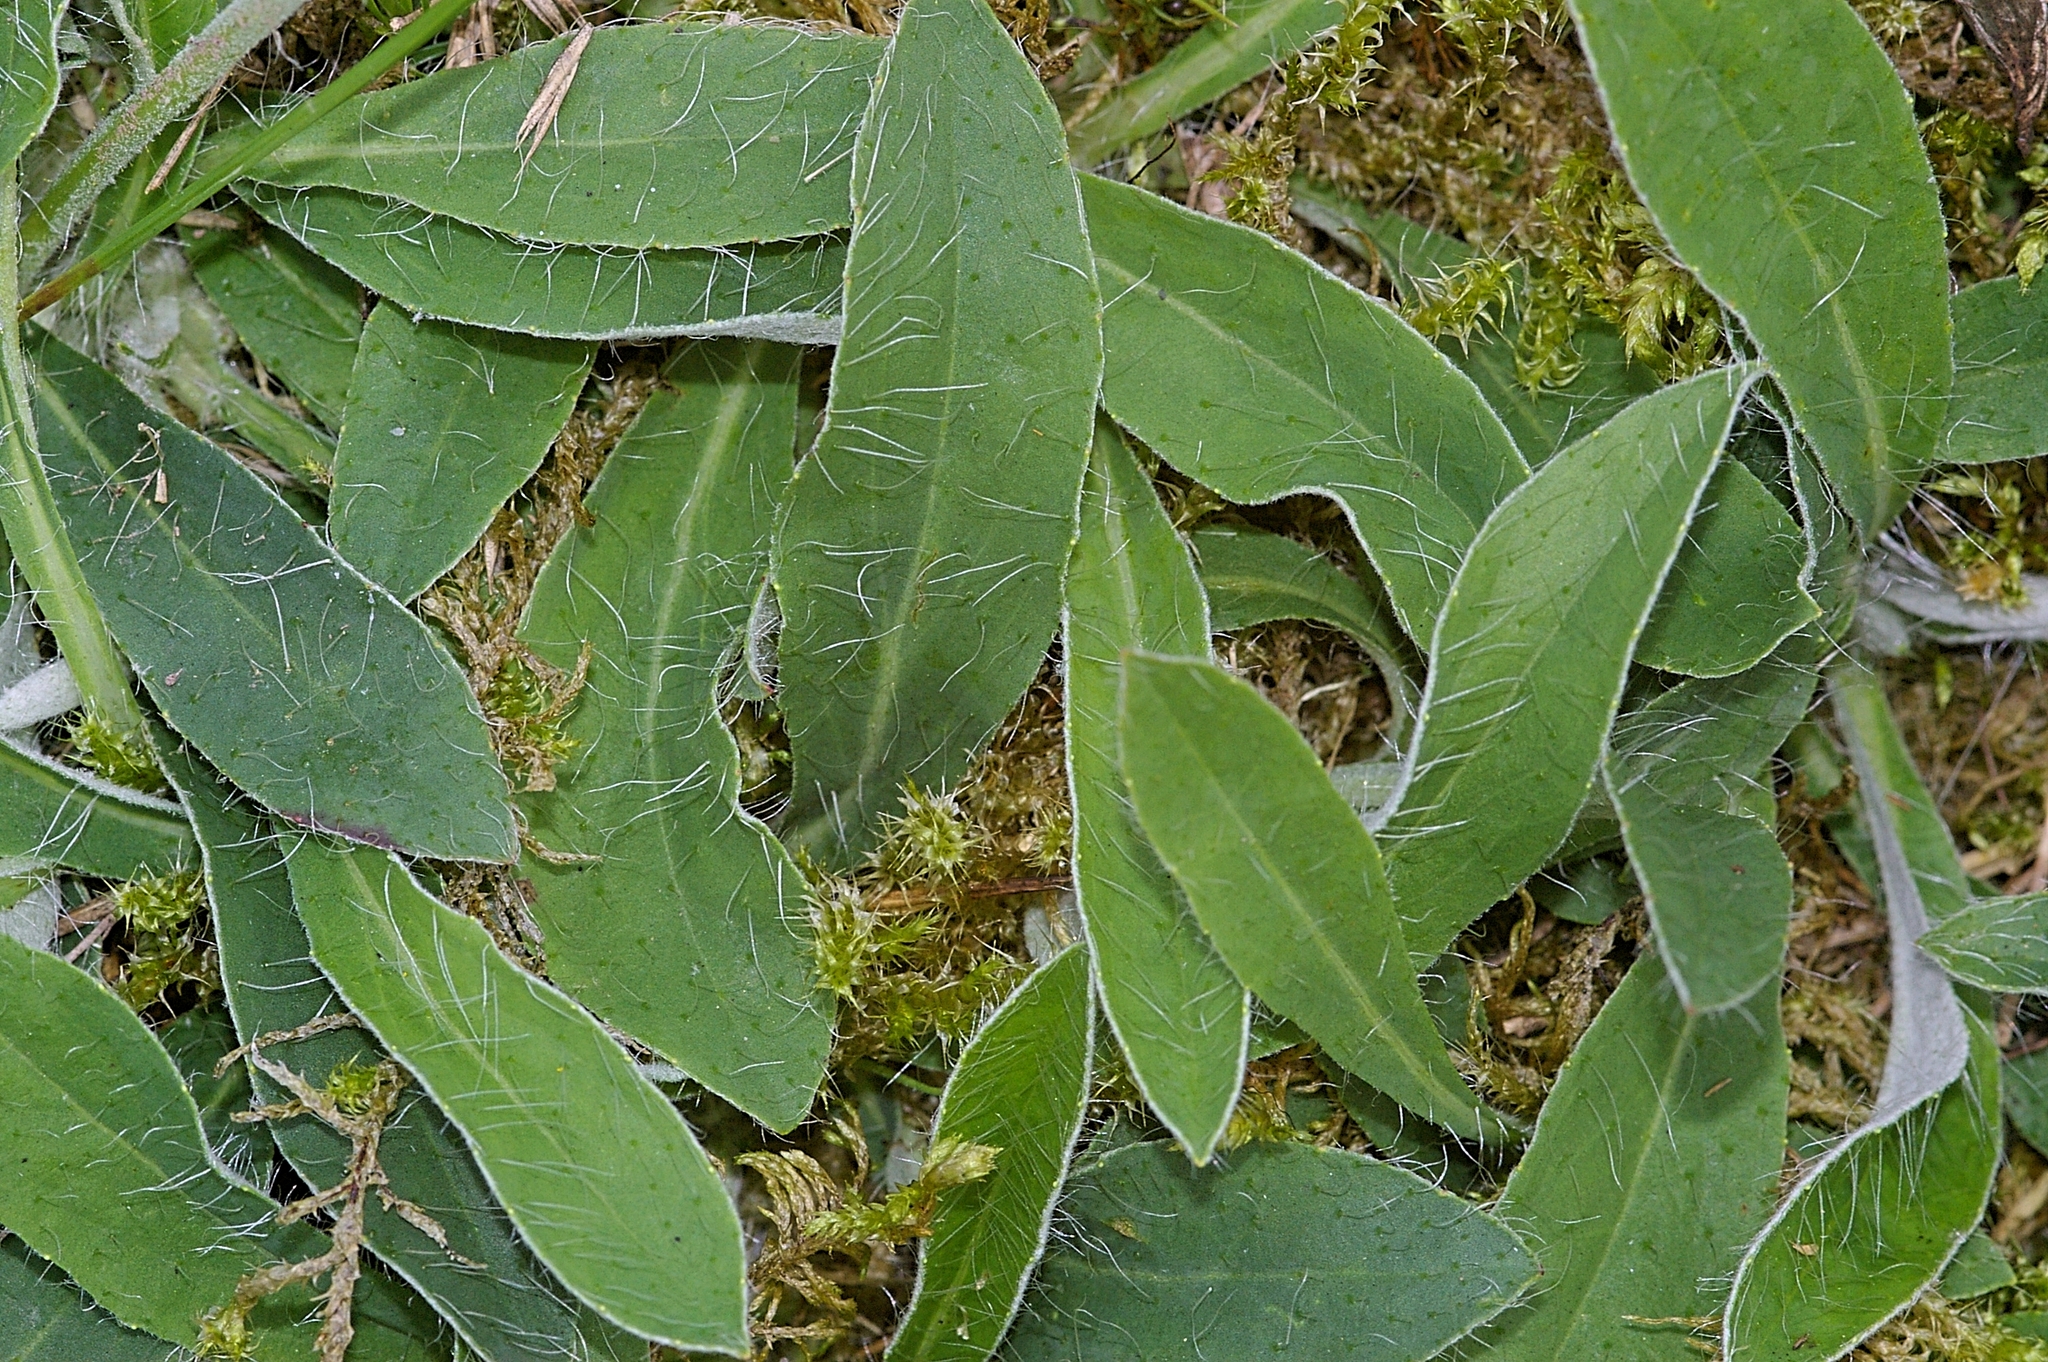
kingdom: Plantae
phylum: Tracheophyta
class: Magnoliopsida
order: Asterales
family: Asteraceae
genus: Pilosella
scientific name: Pilosella officinarum
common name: Mouse-ear hawkweed
